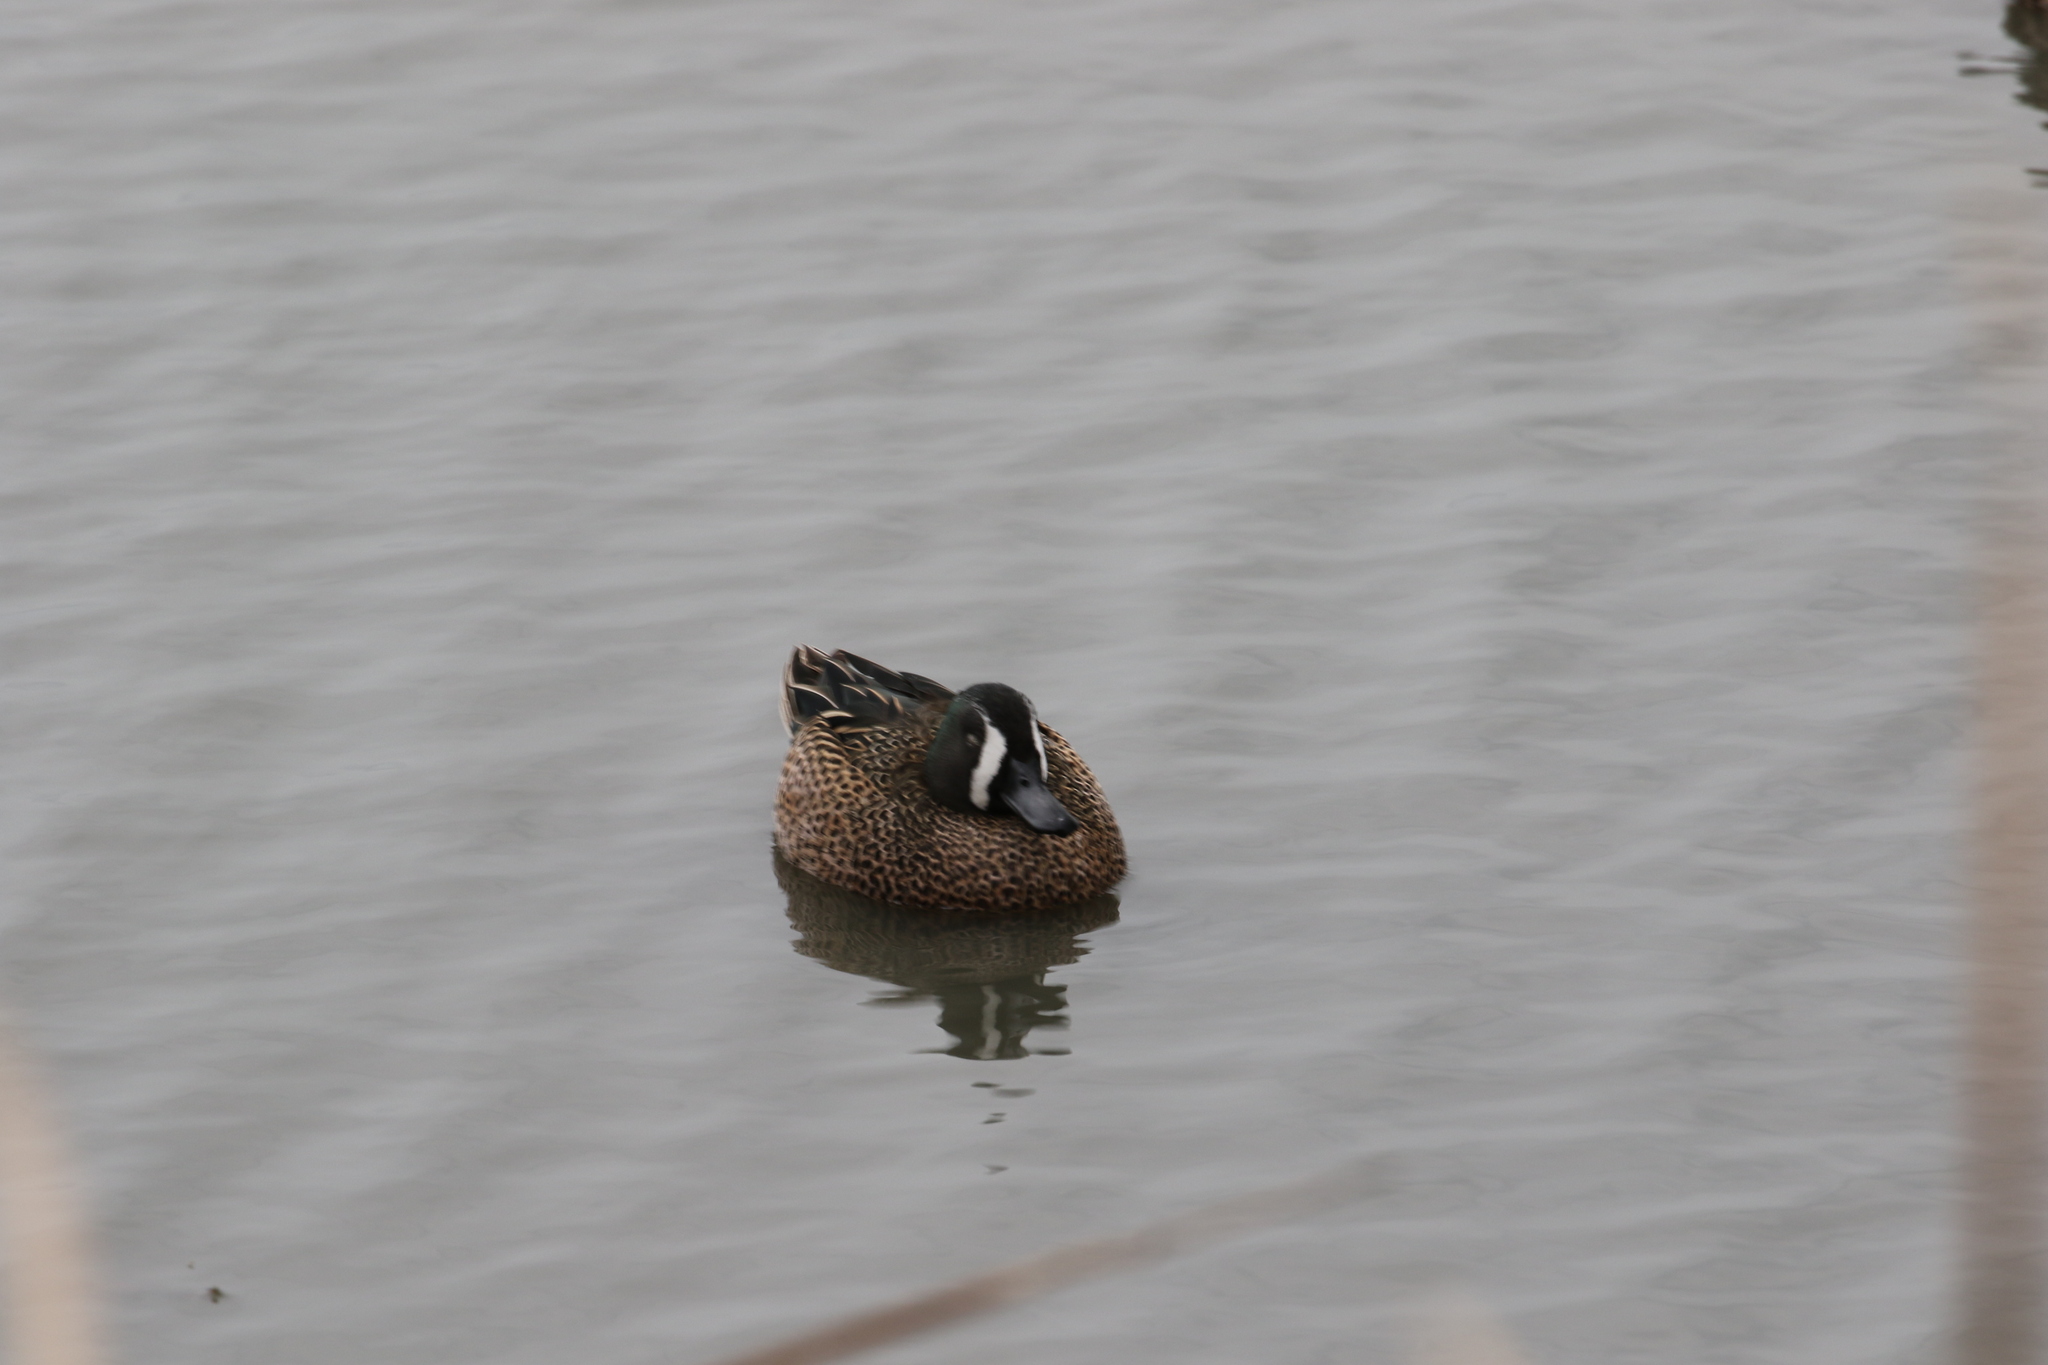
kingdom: Animalia
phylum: Chordata
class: Aves
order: Anseriformes
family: Anatidae
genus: Spatula
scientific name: Spatula discors
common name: Blue-winged teal
